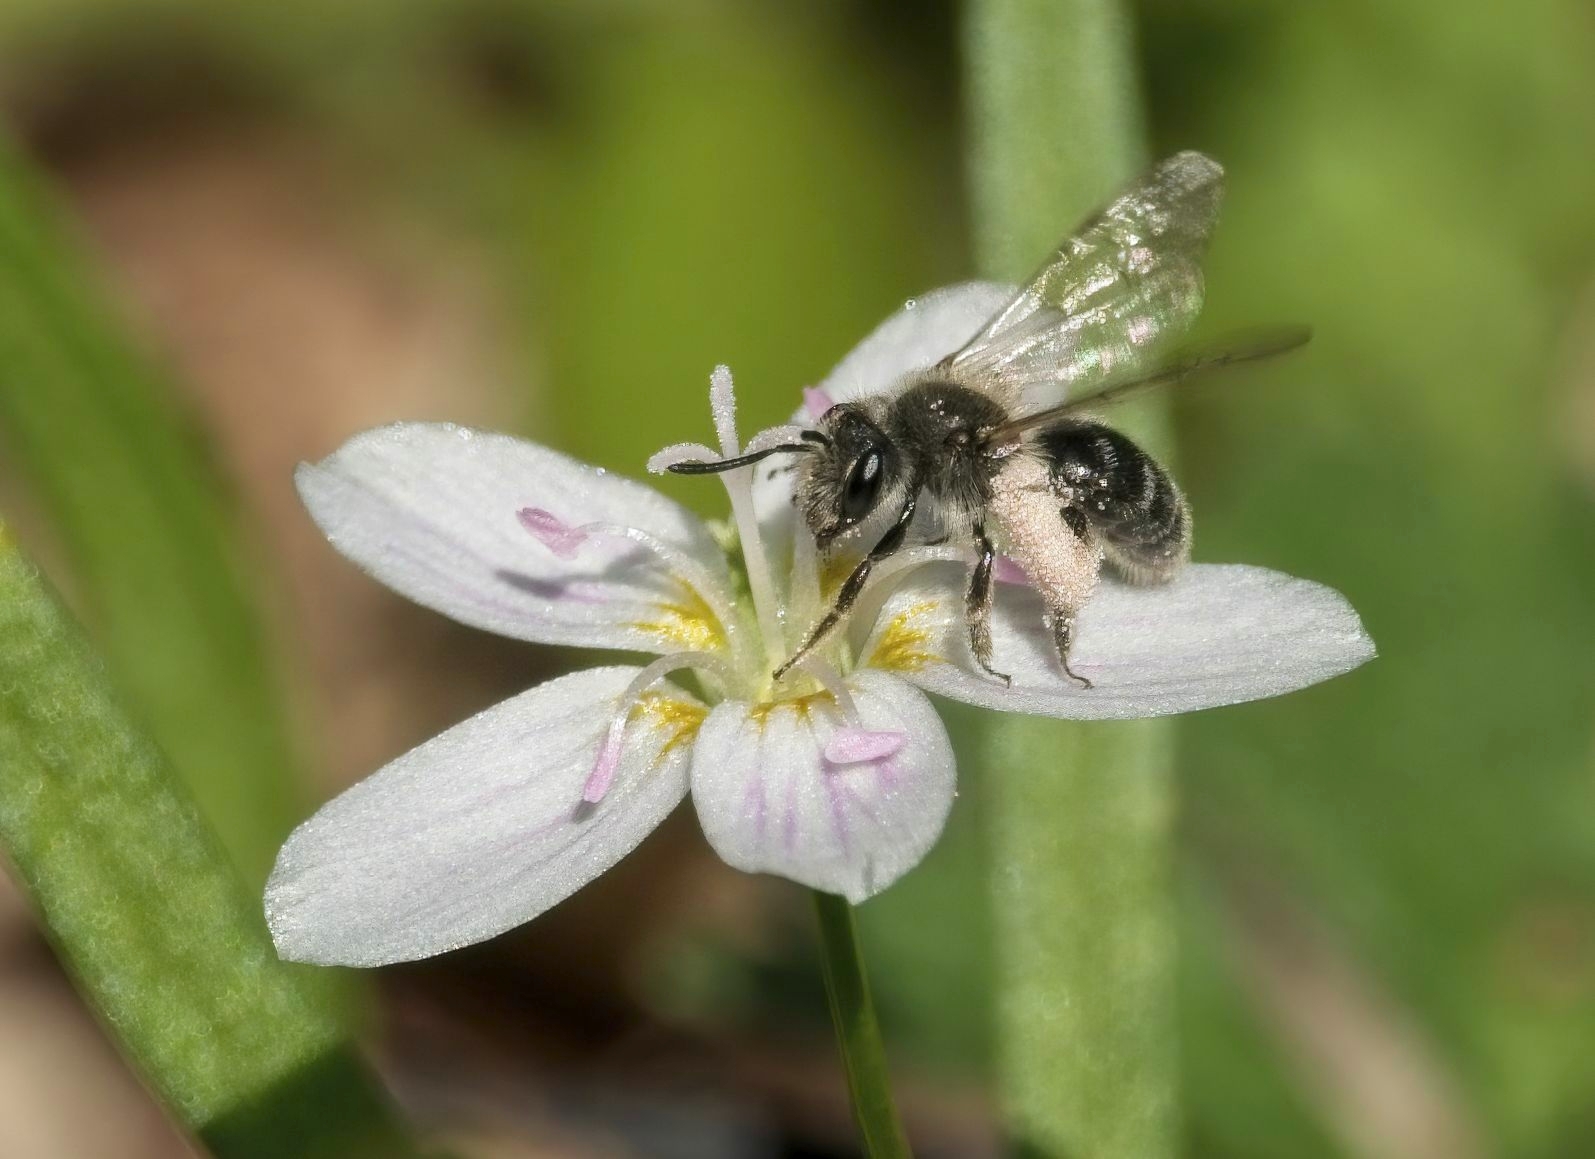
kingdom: Animalia
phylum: Arthropoda
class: Insecta
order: Hymenoptera
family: Andrenidae
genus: Andrena
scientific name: Andrena erigeniae
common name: Spring beauty miner
